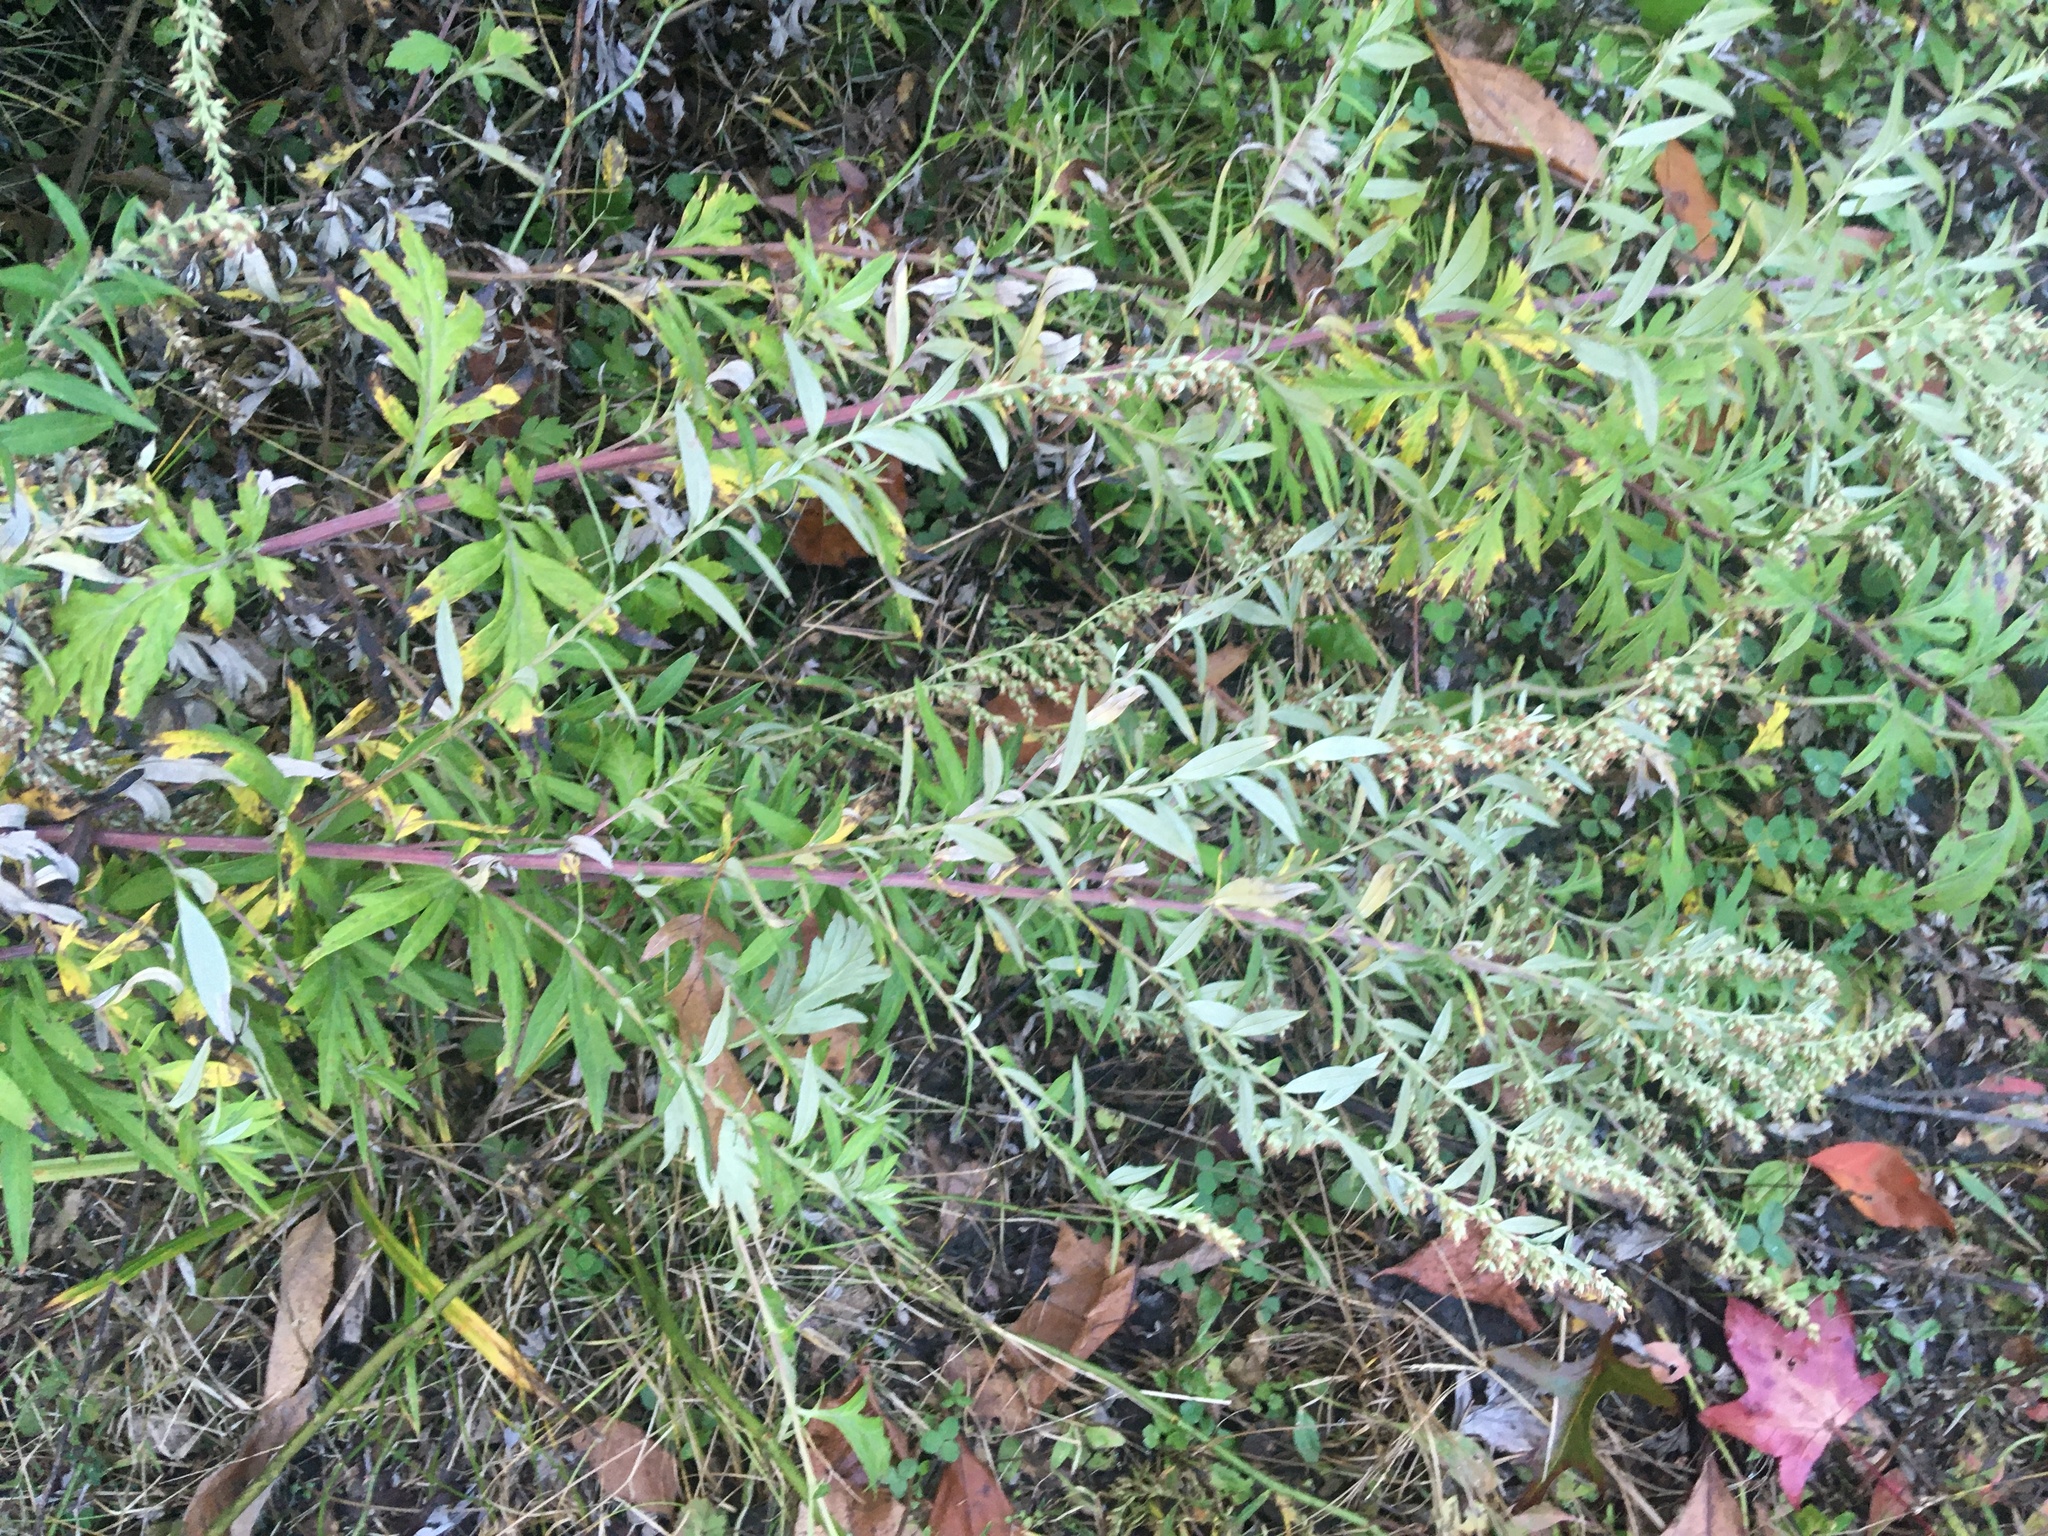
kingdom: Plantae
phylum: Tracheophyta
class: Magnoliopsida
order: Asterales
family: Asteraceae
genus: Artemisia
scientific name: Artemisia vulgaris
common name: Mugwort
